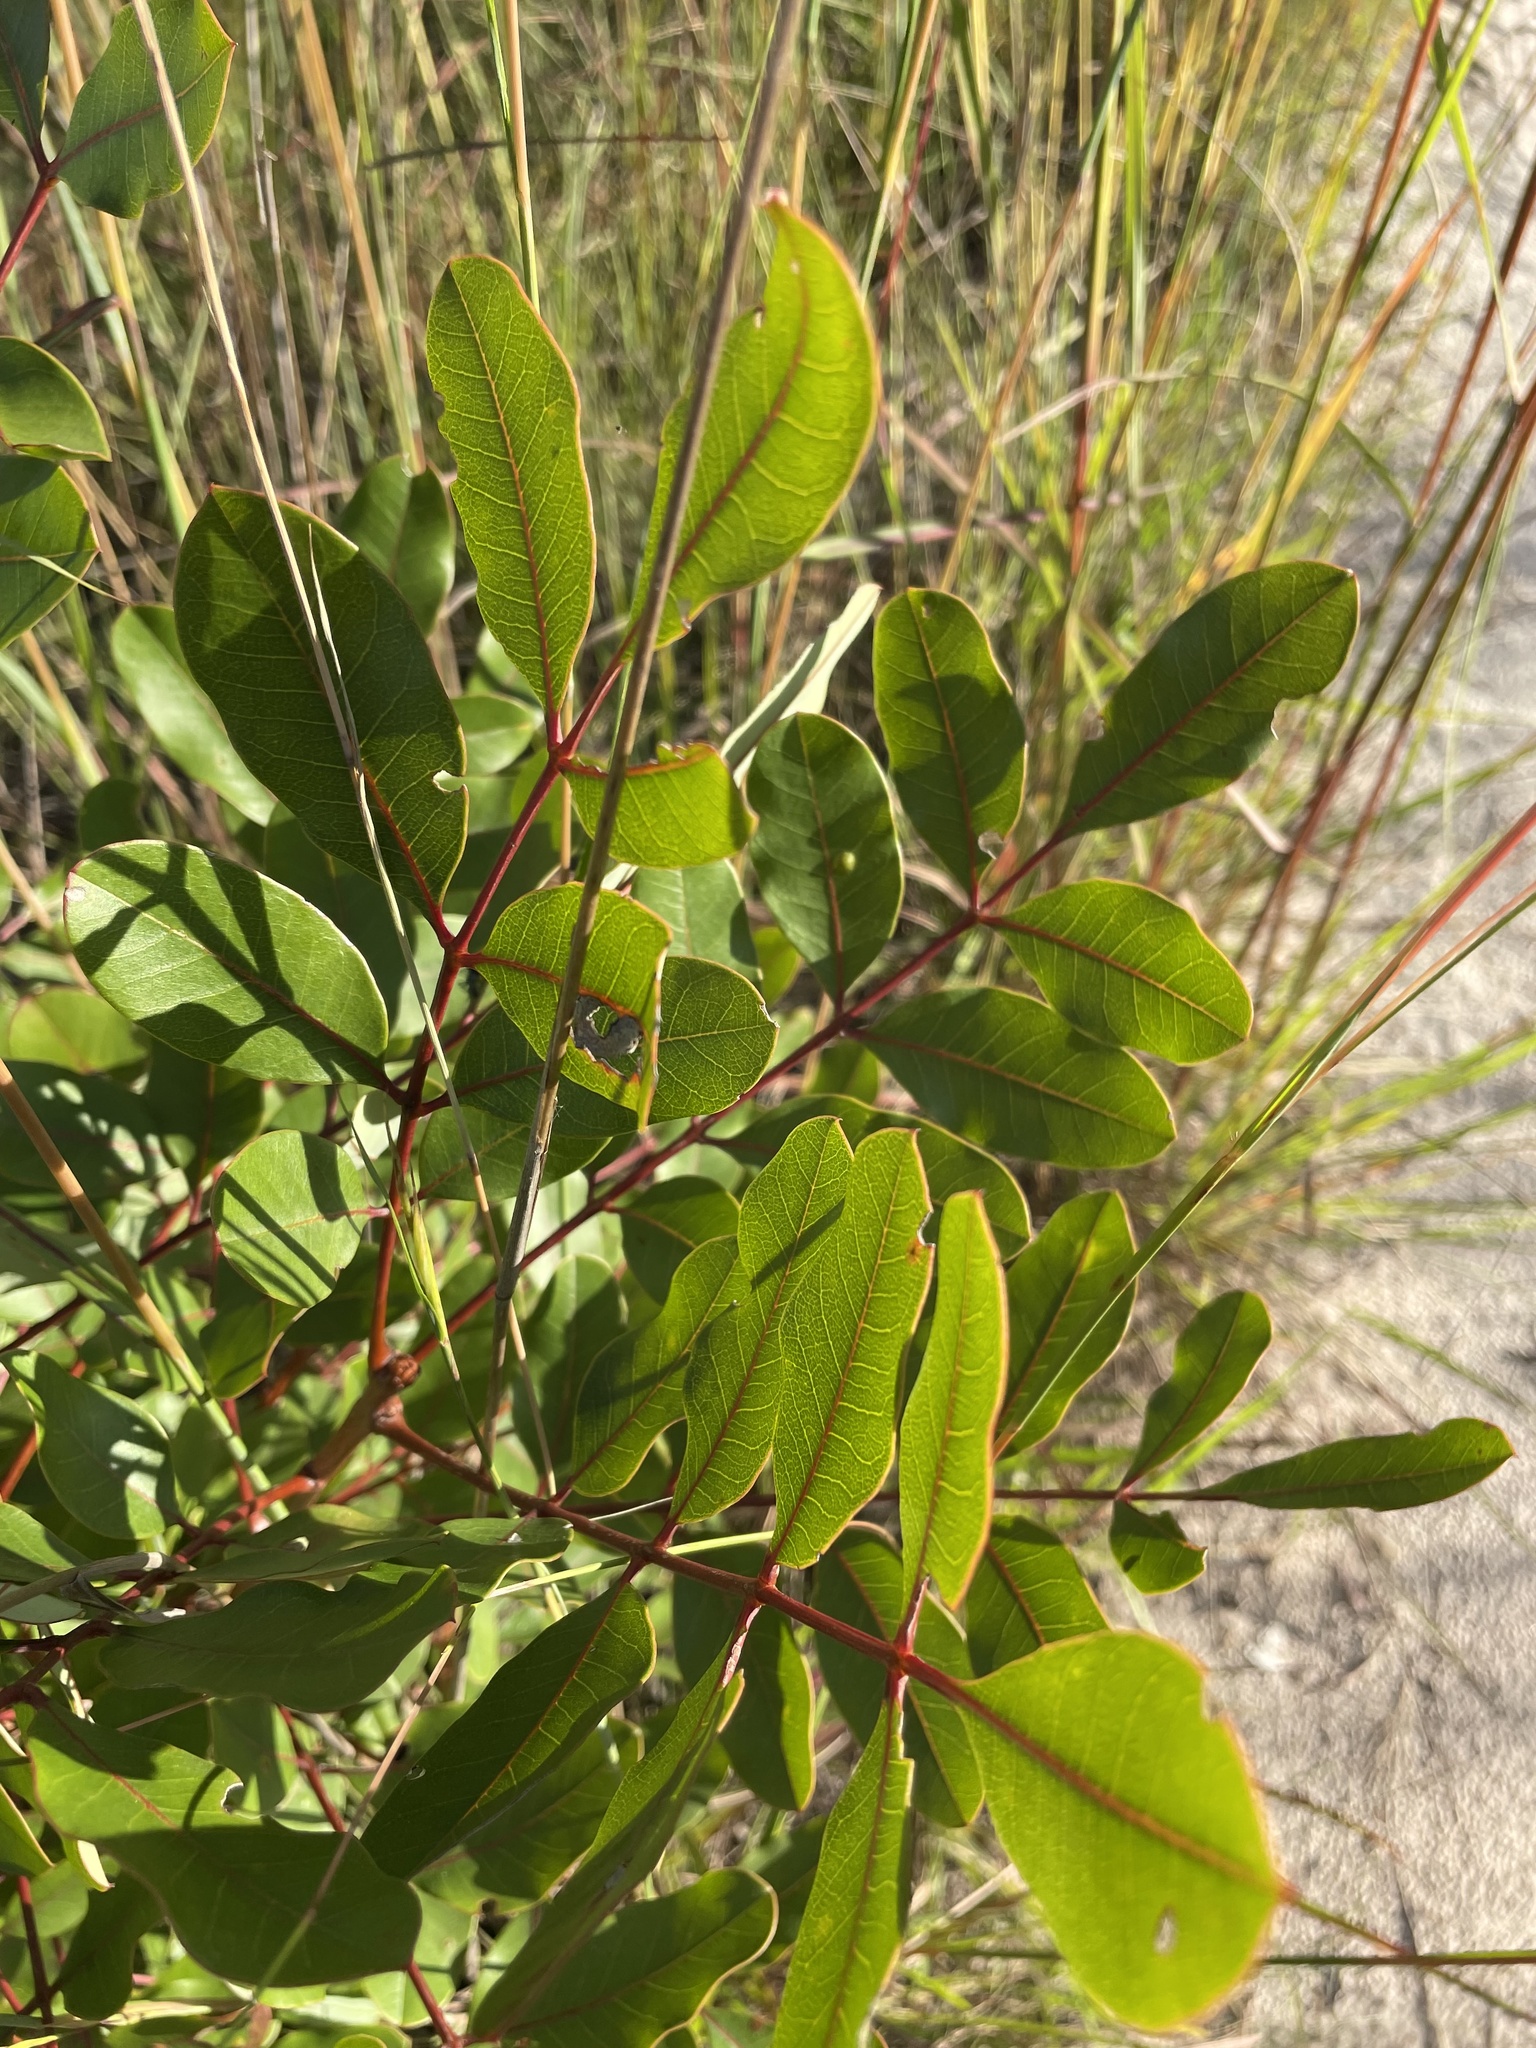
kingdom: Plantae
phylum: Tracheophyta
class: Magnoliopsida
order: Sapindales
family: Meliaceae
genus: Ekebergia
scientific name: Ekebergia benguelensis
